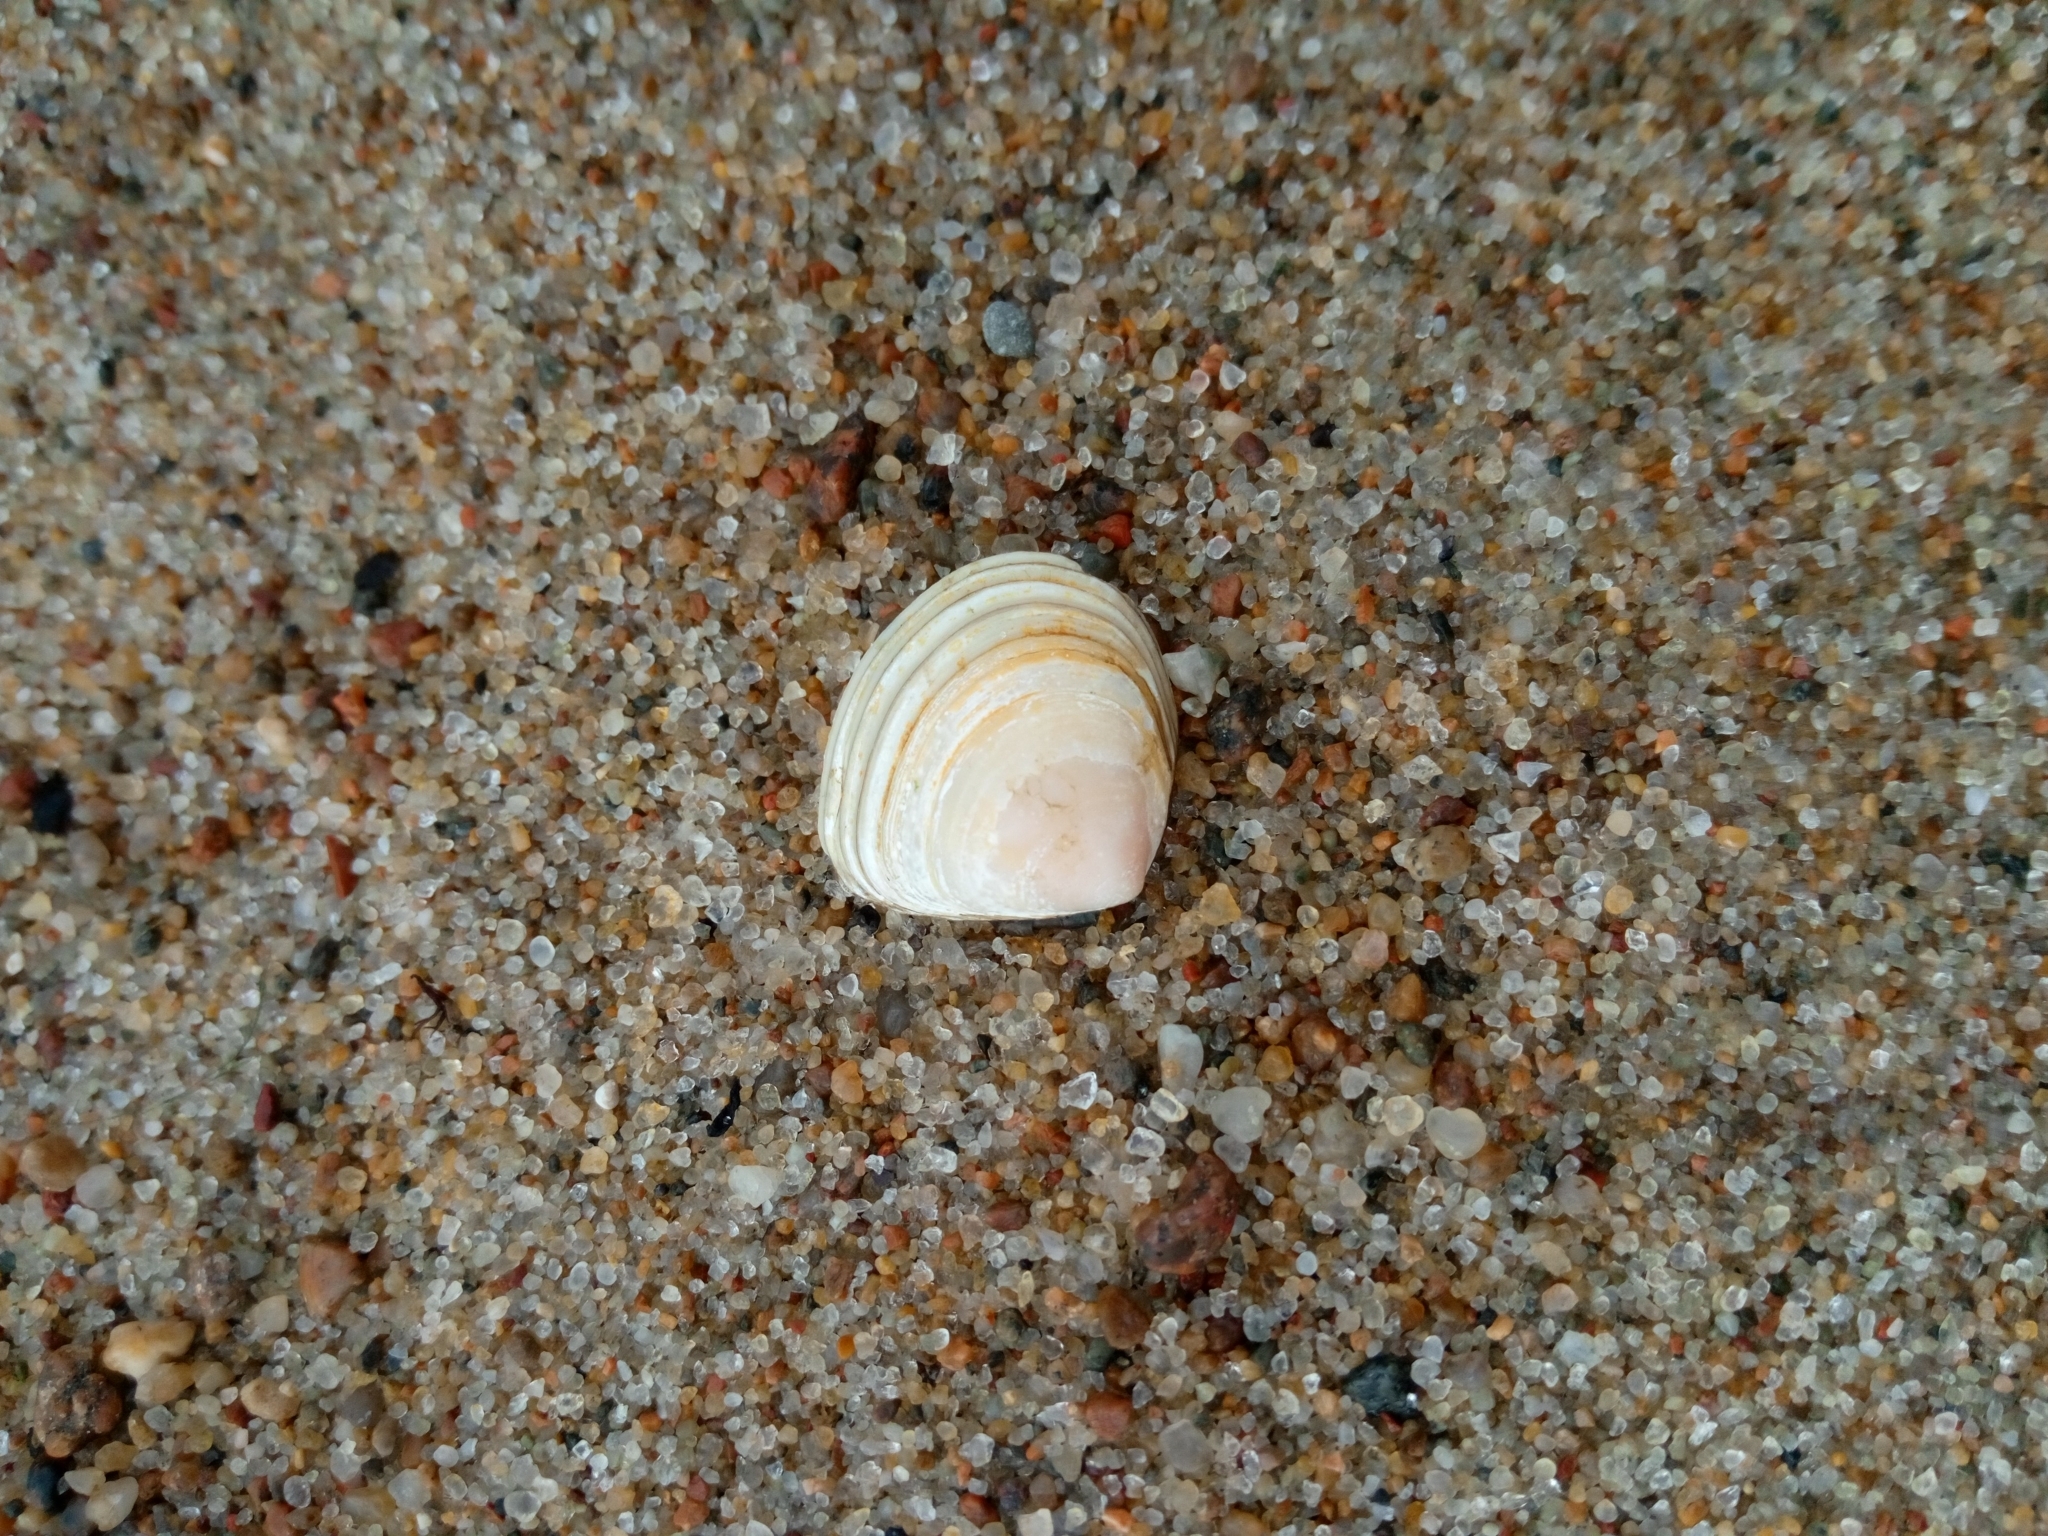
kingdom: Animalia
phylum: Mollusca
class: Bivalvia
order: Cardiida
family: Tellinidae
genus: Macoma
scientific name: Macoma balthica
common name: Baltic tellin
